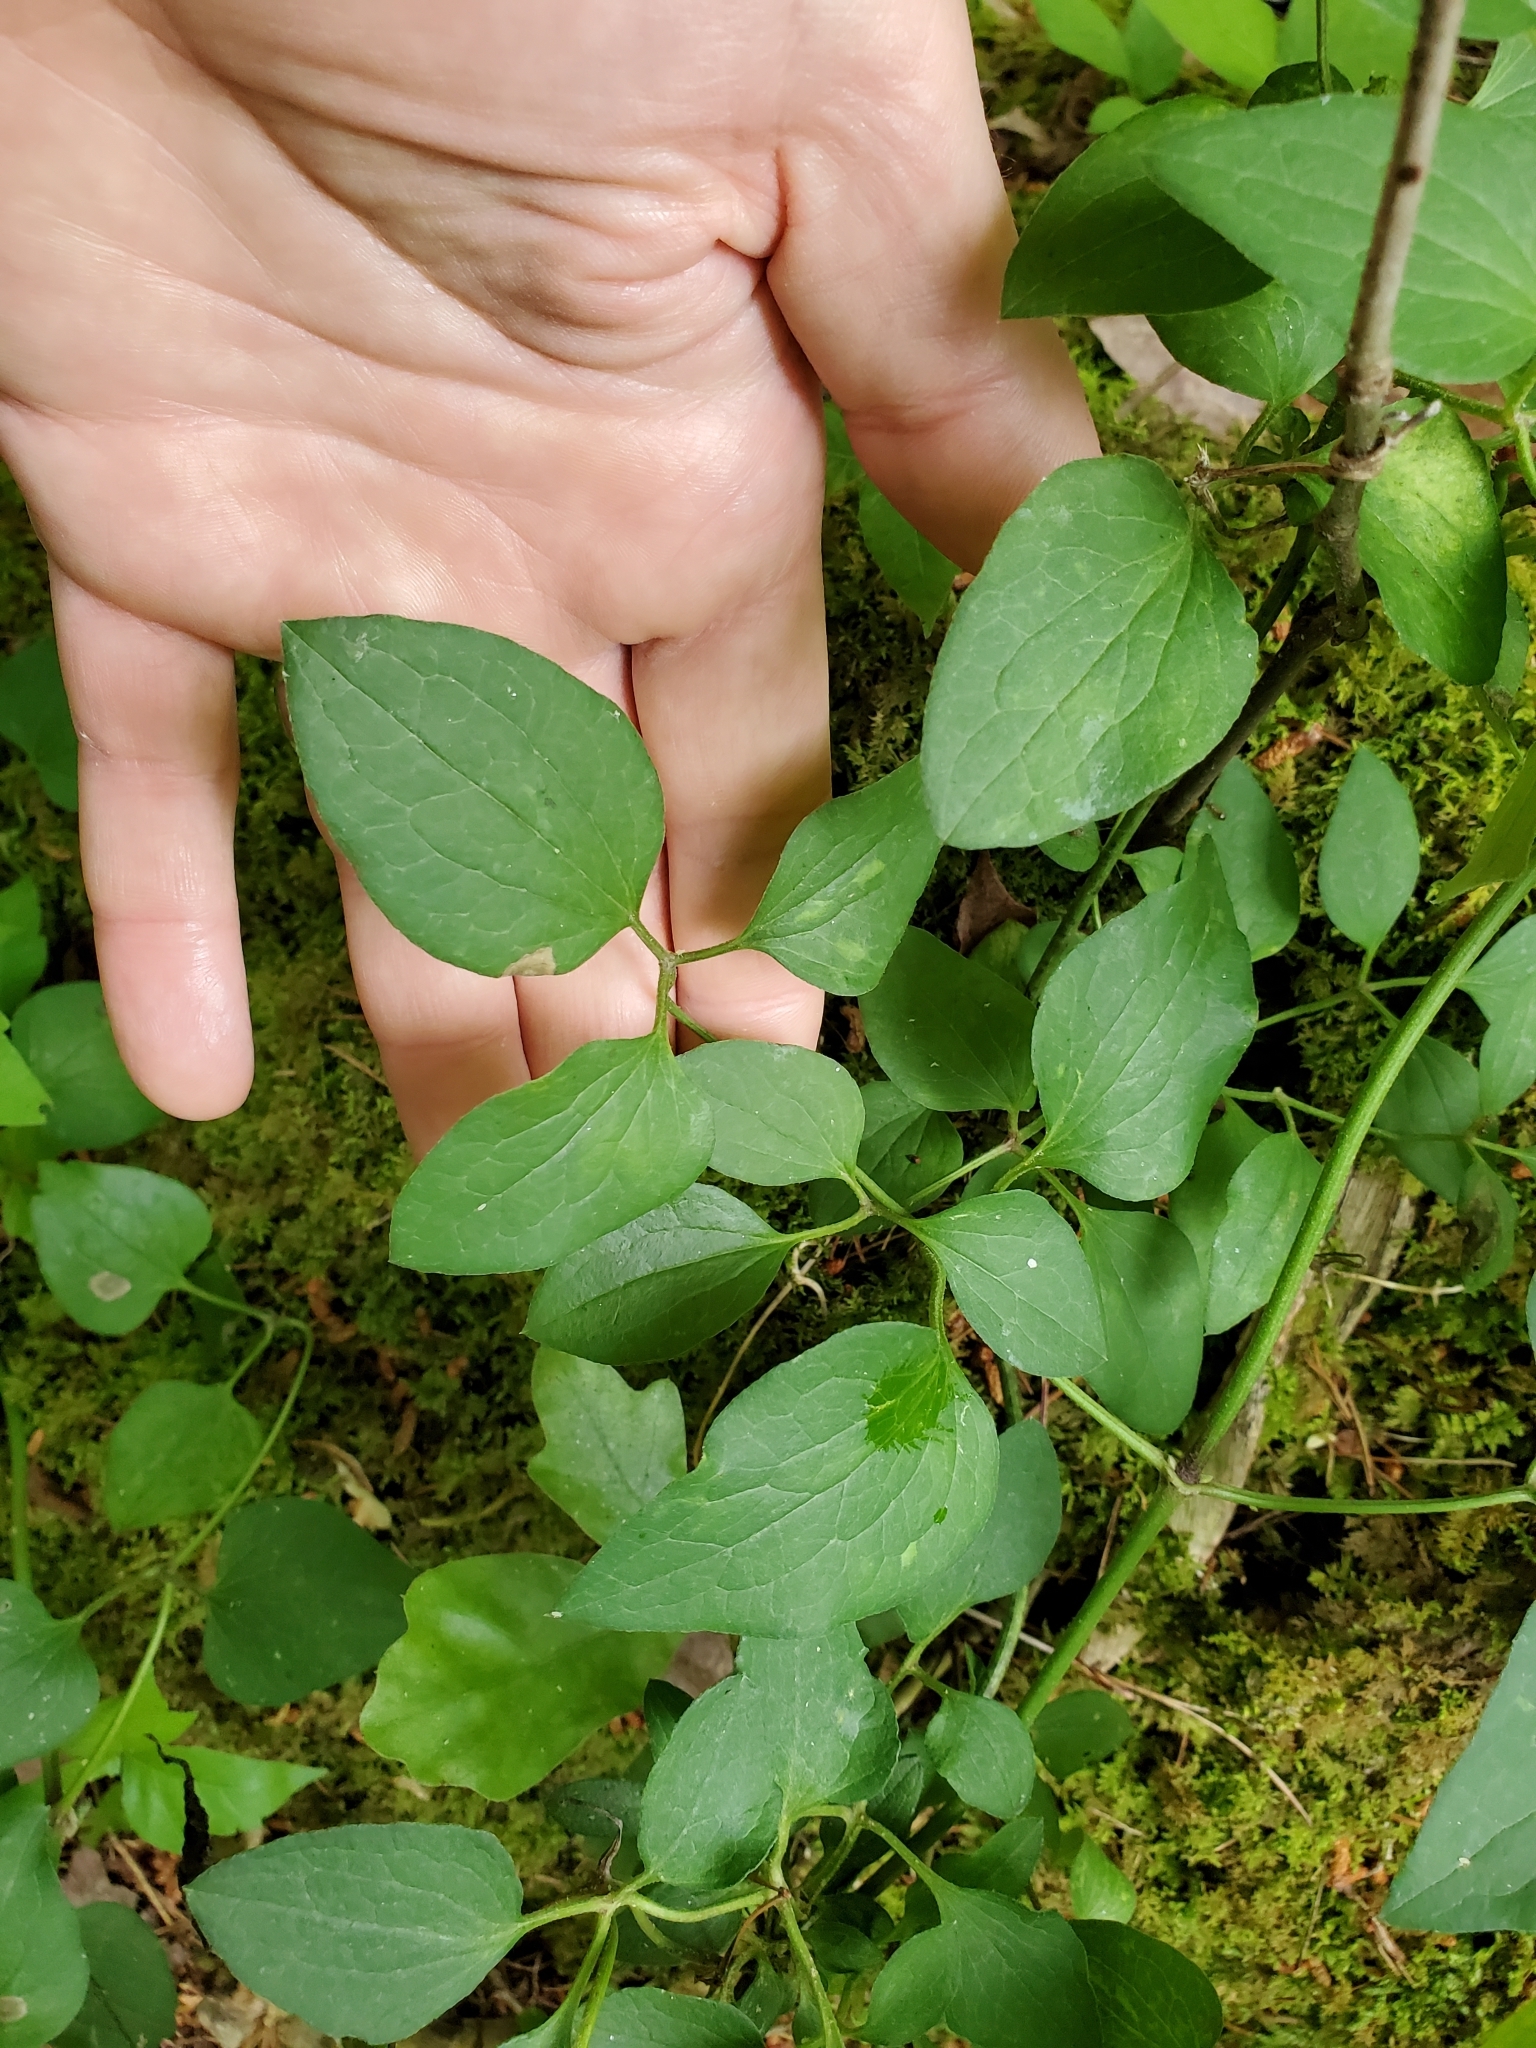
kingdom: Plantae
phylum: Tracheophyta
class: Magnoliopsida
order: Ranunculales
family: Ranunculaceae
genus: Clematis
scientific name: Clematis terniflora
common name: Sweet autumn clematis
